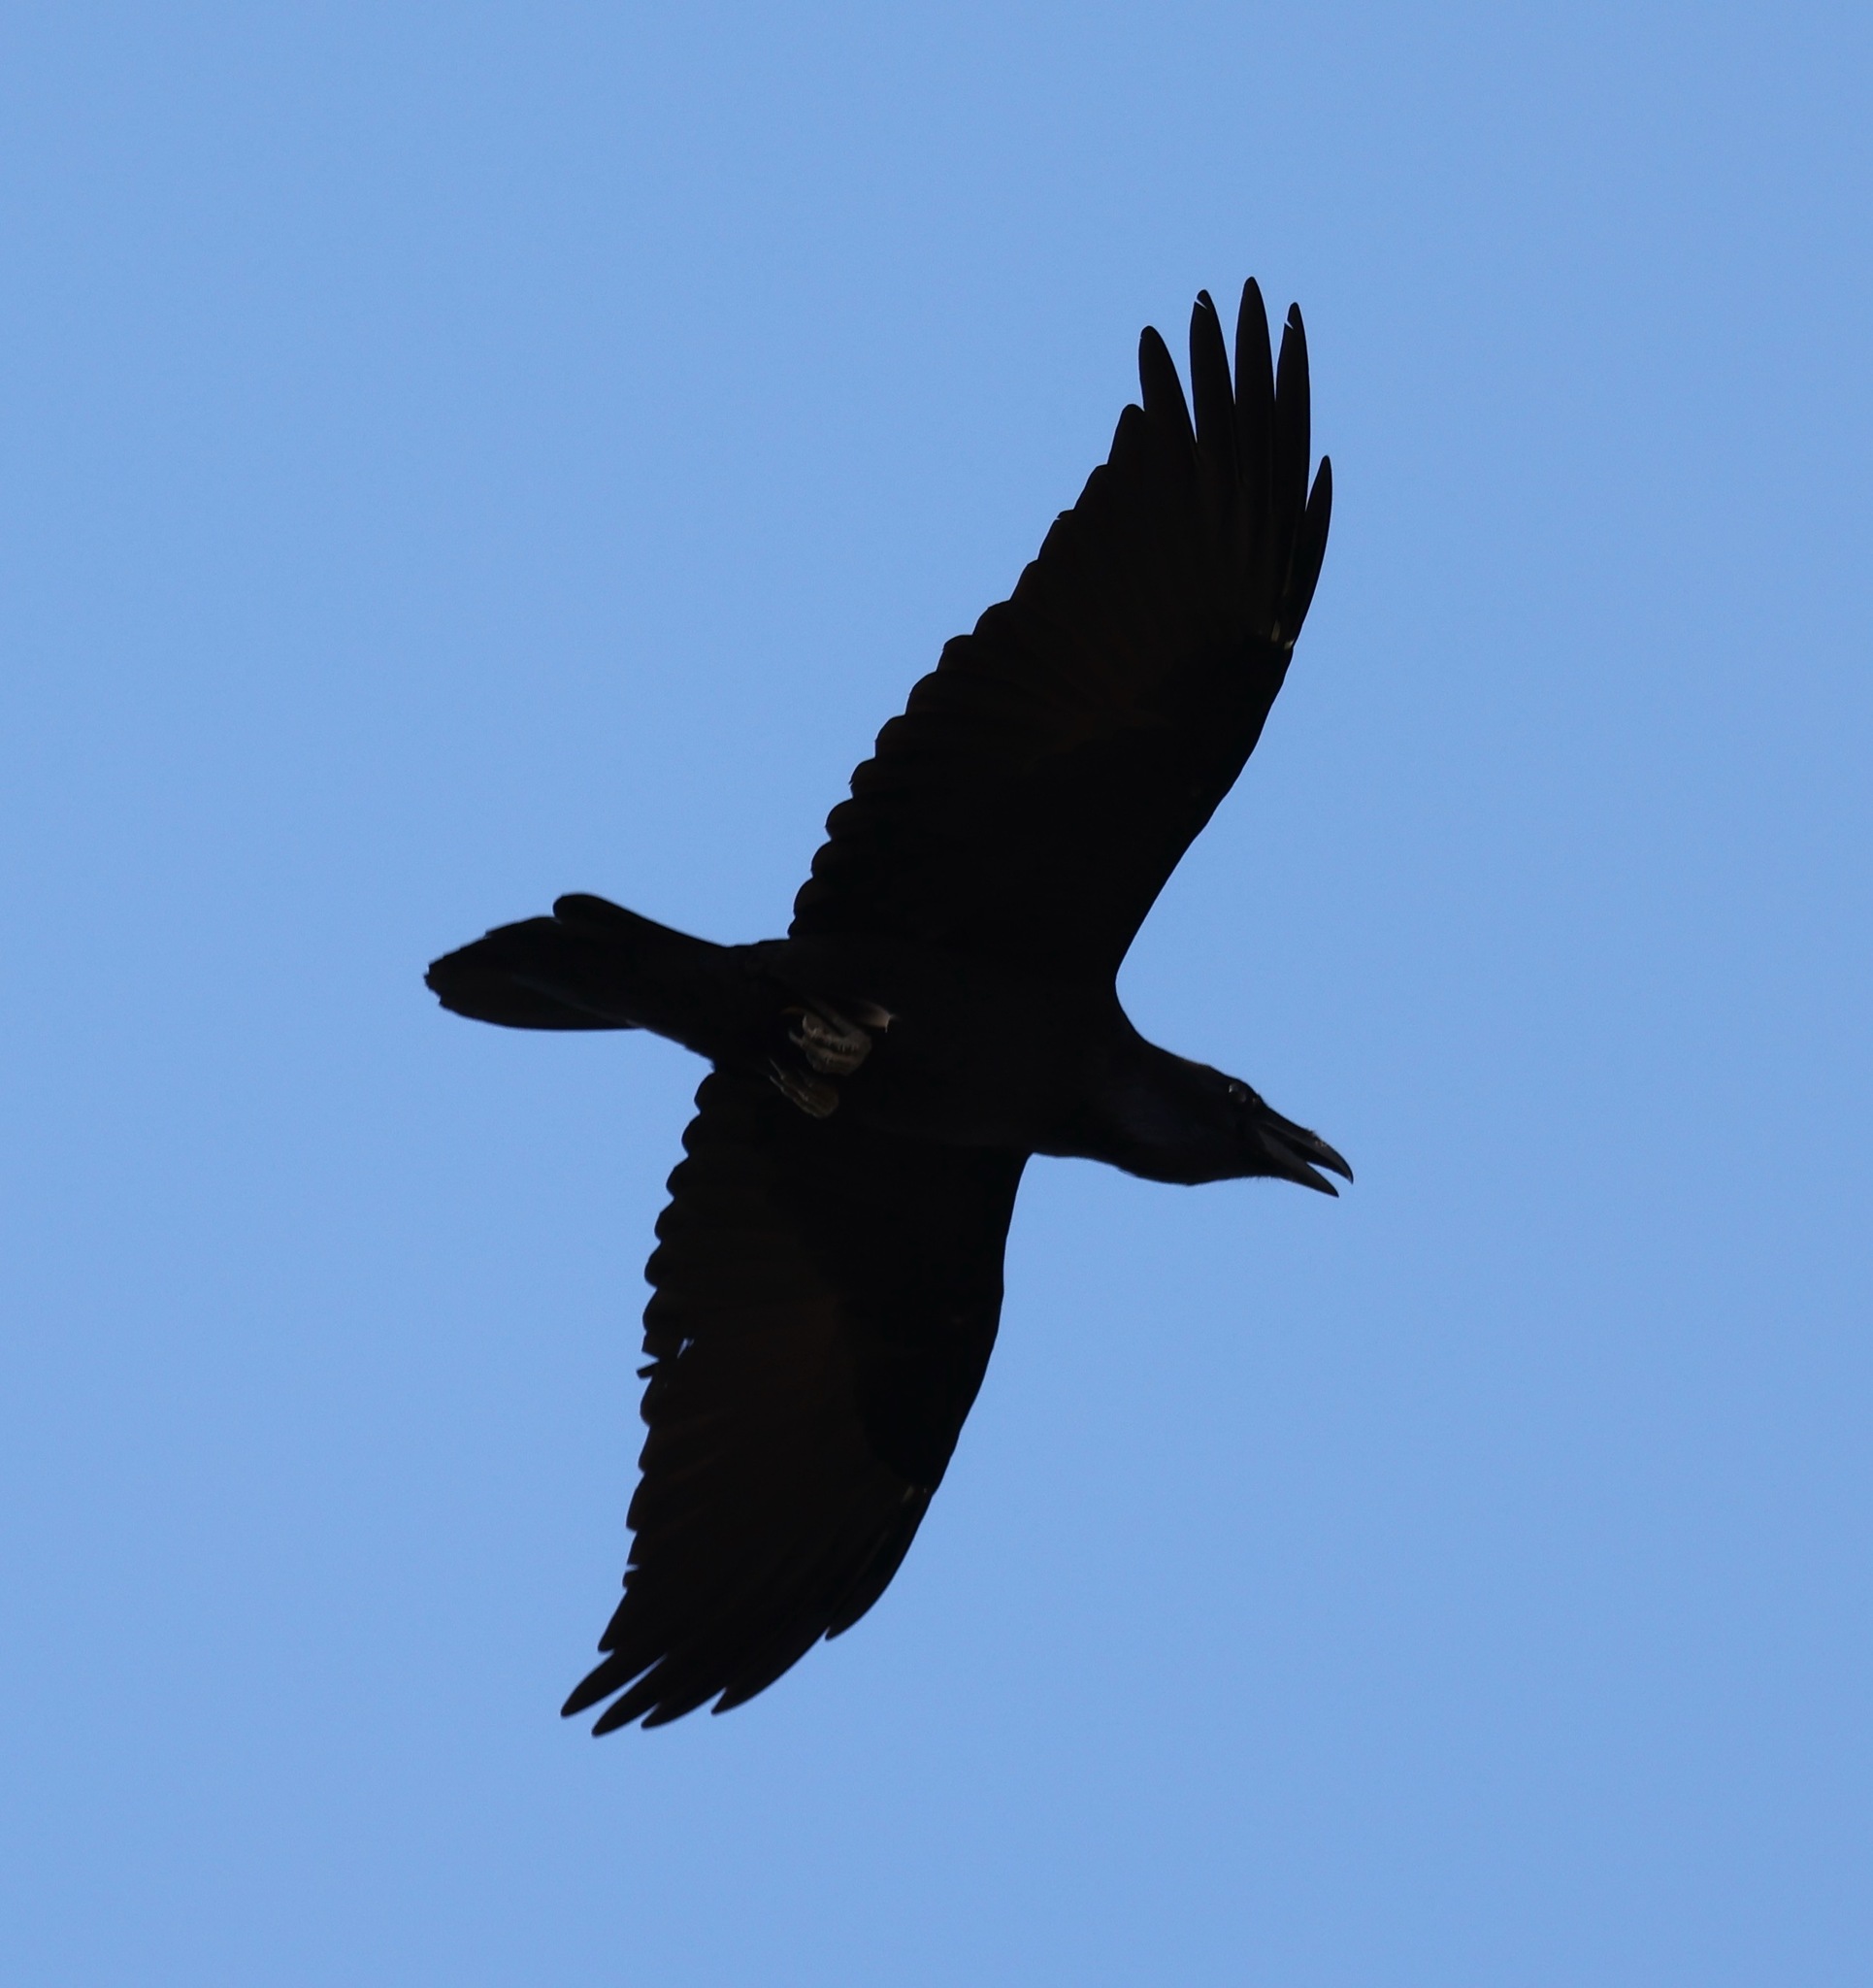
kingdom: Animalia
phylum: Chordata
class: Aves
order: Passeriformes
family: Corvidae
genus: Corvus
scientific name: Corvus corax
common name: Common raven
